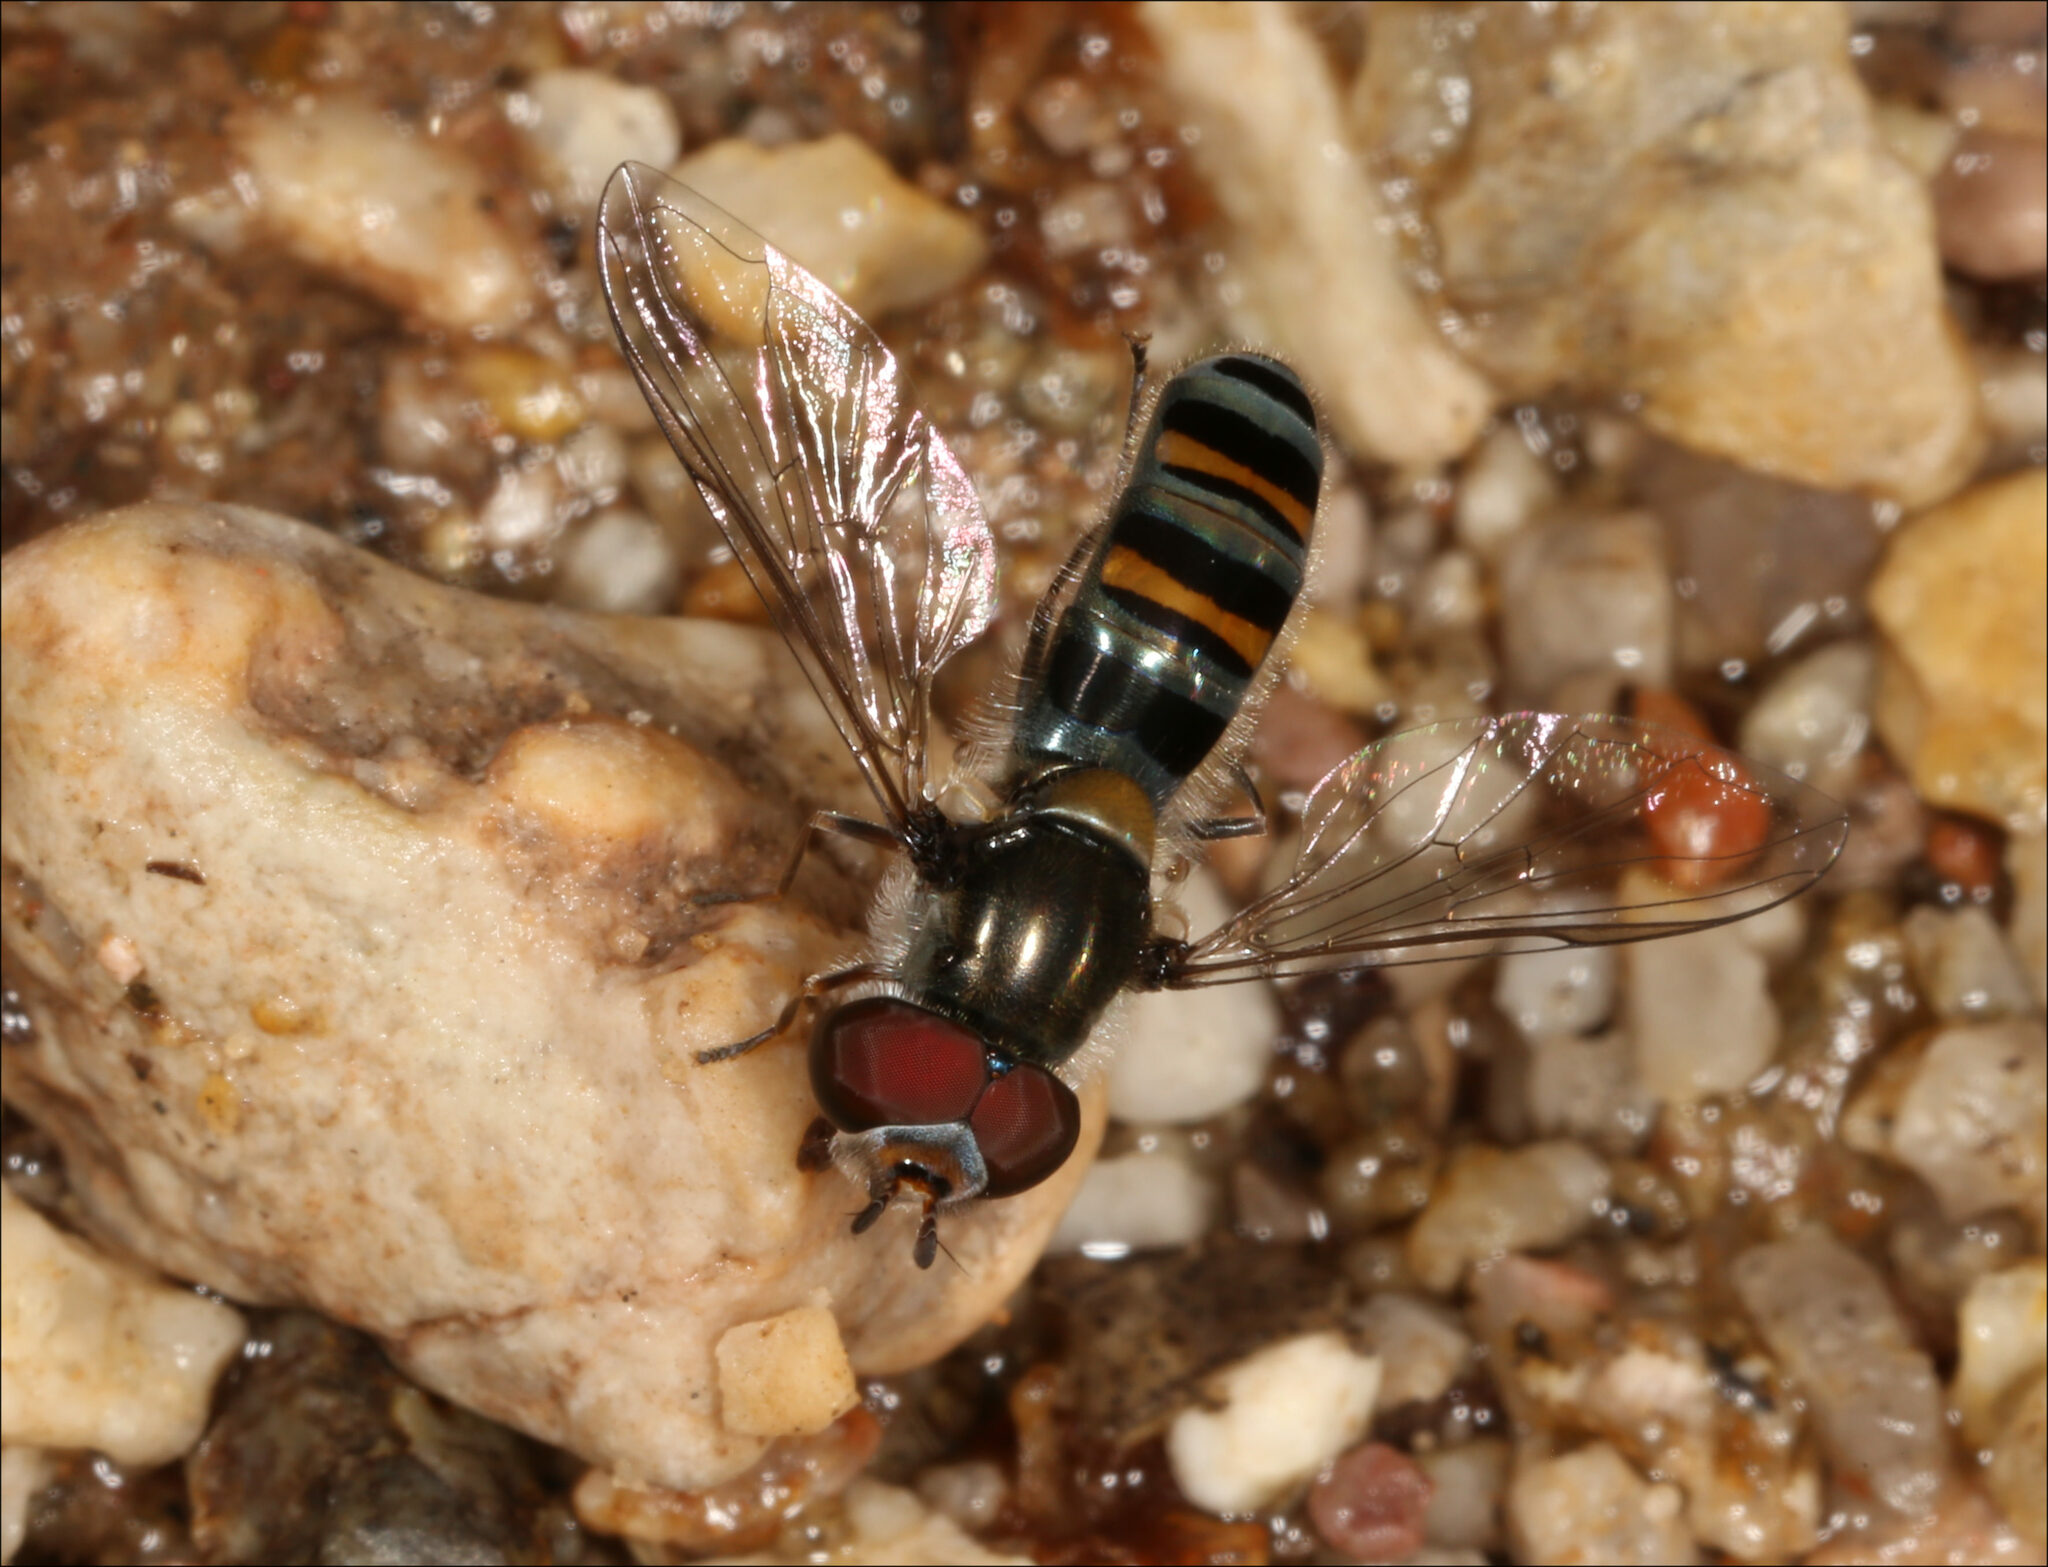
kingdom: Animalia
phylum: Arthropoda
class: Insecta
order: Diptera
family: Syrphidae
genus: Pseudoscaeva
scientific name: Pseudoscaeva diversifasciata
